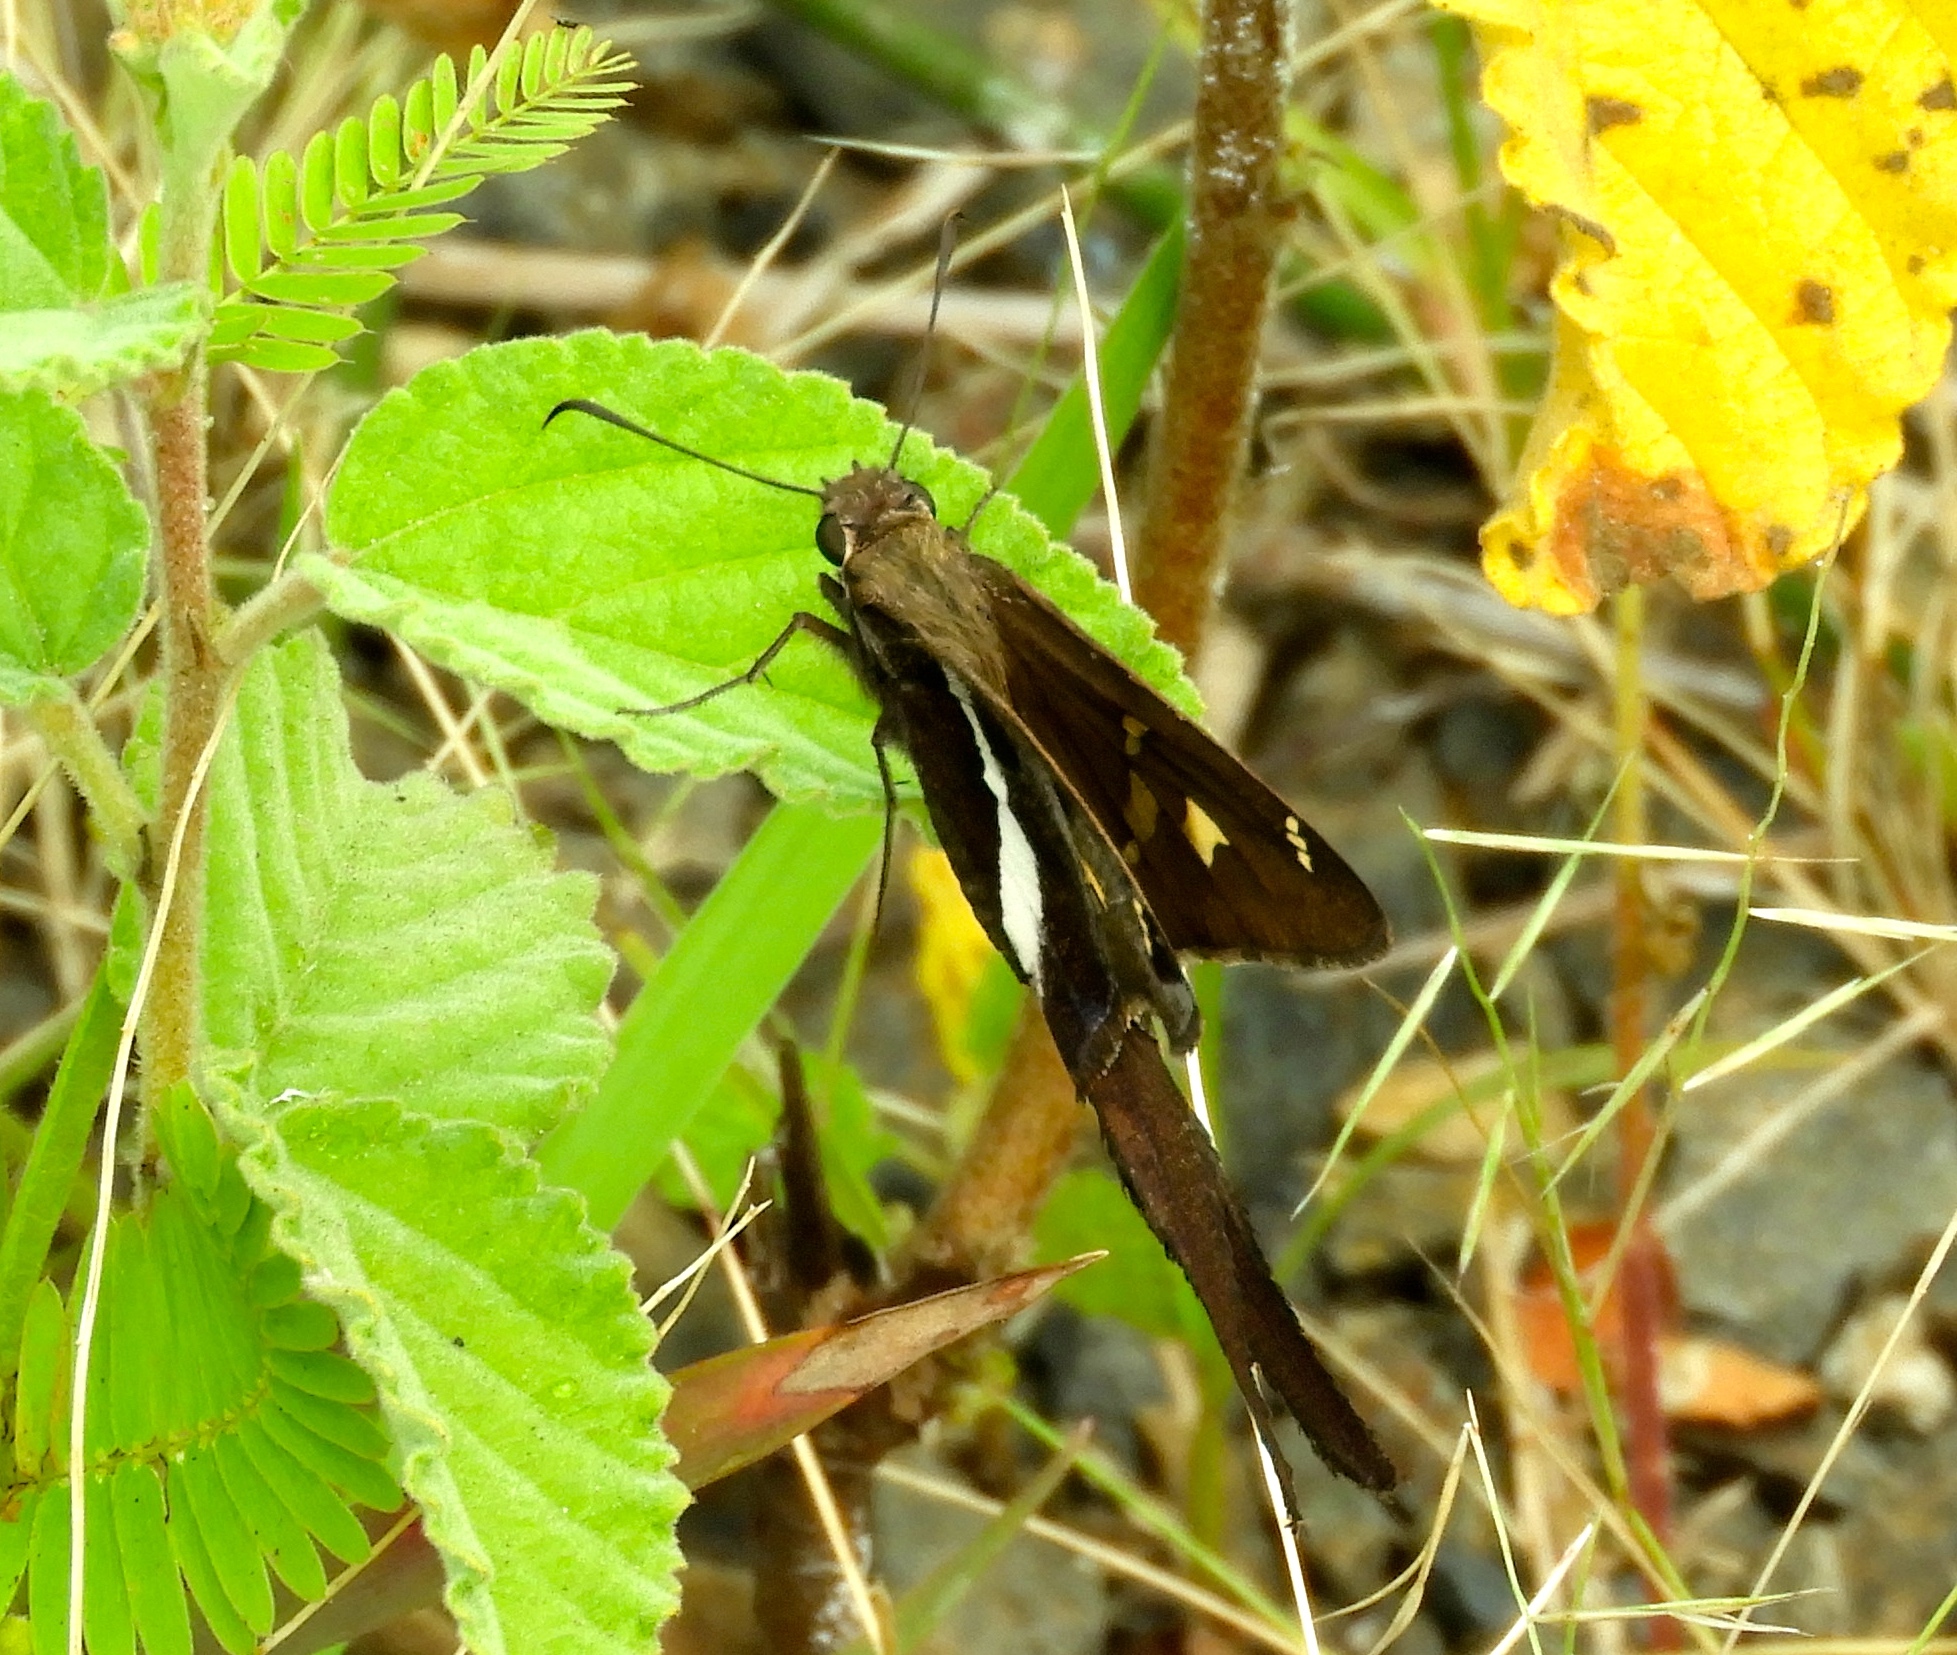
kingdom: Animalia
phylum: Arthropoda
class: Insecta
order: Lepidoptera
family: Hesperiidae
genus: Chioides
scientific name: Chioides catillus
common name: Silverbanded skipper
